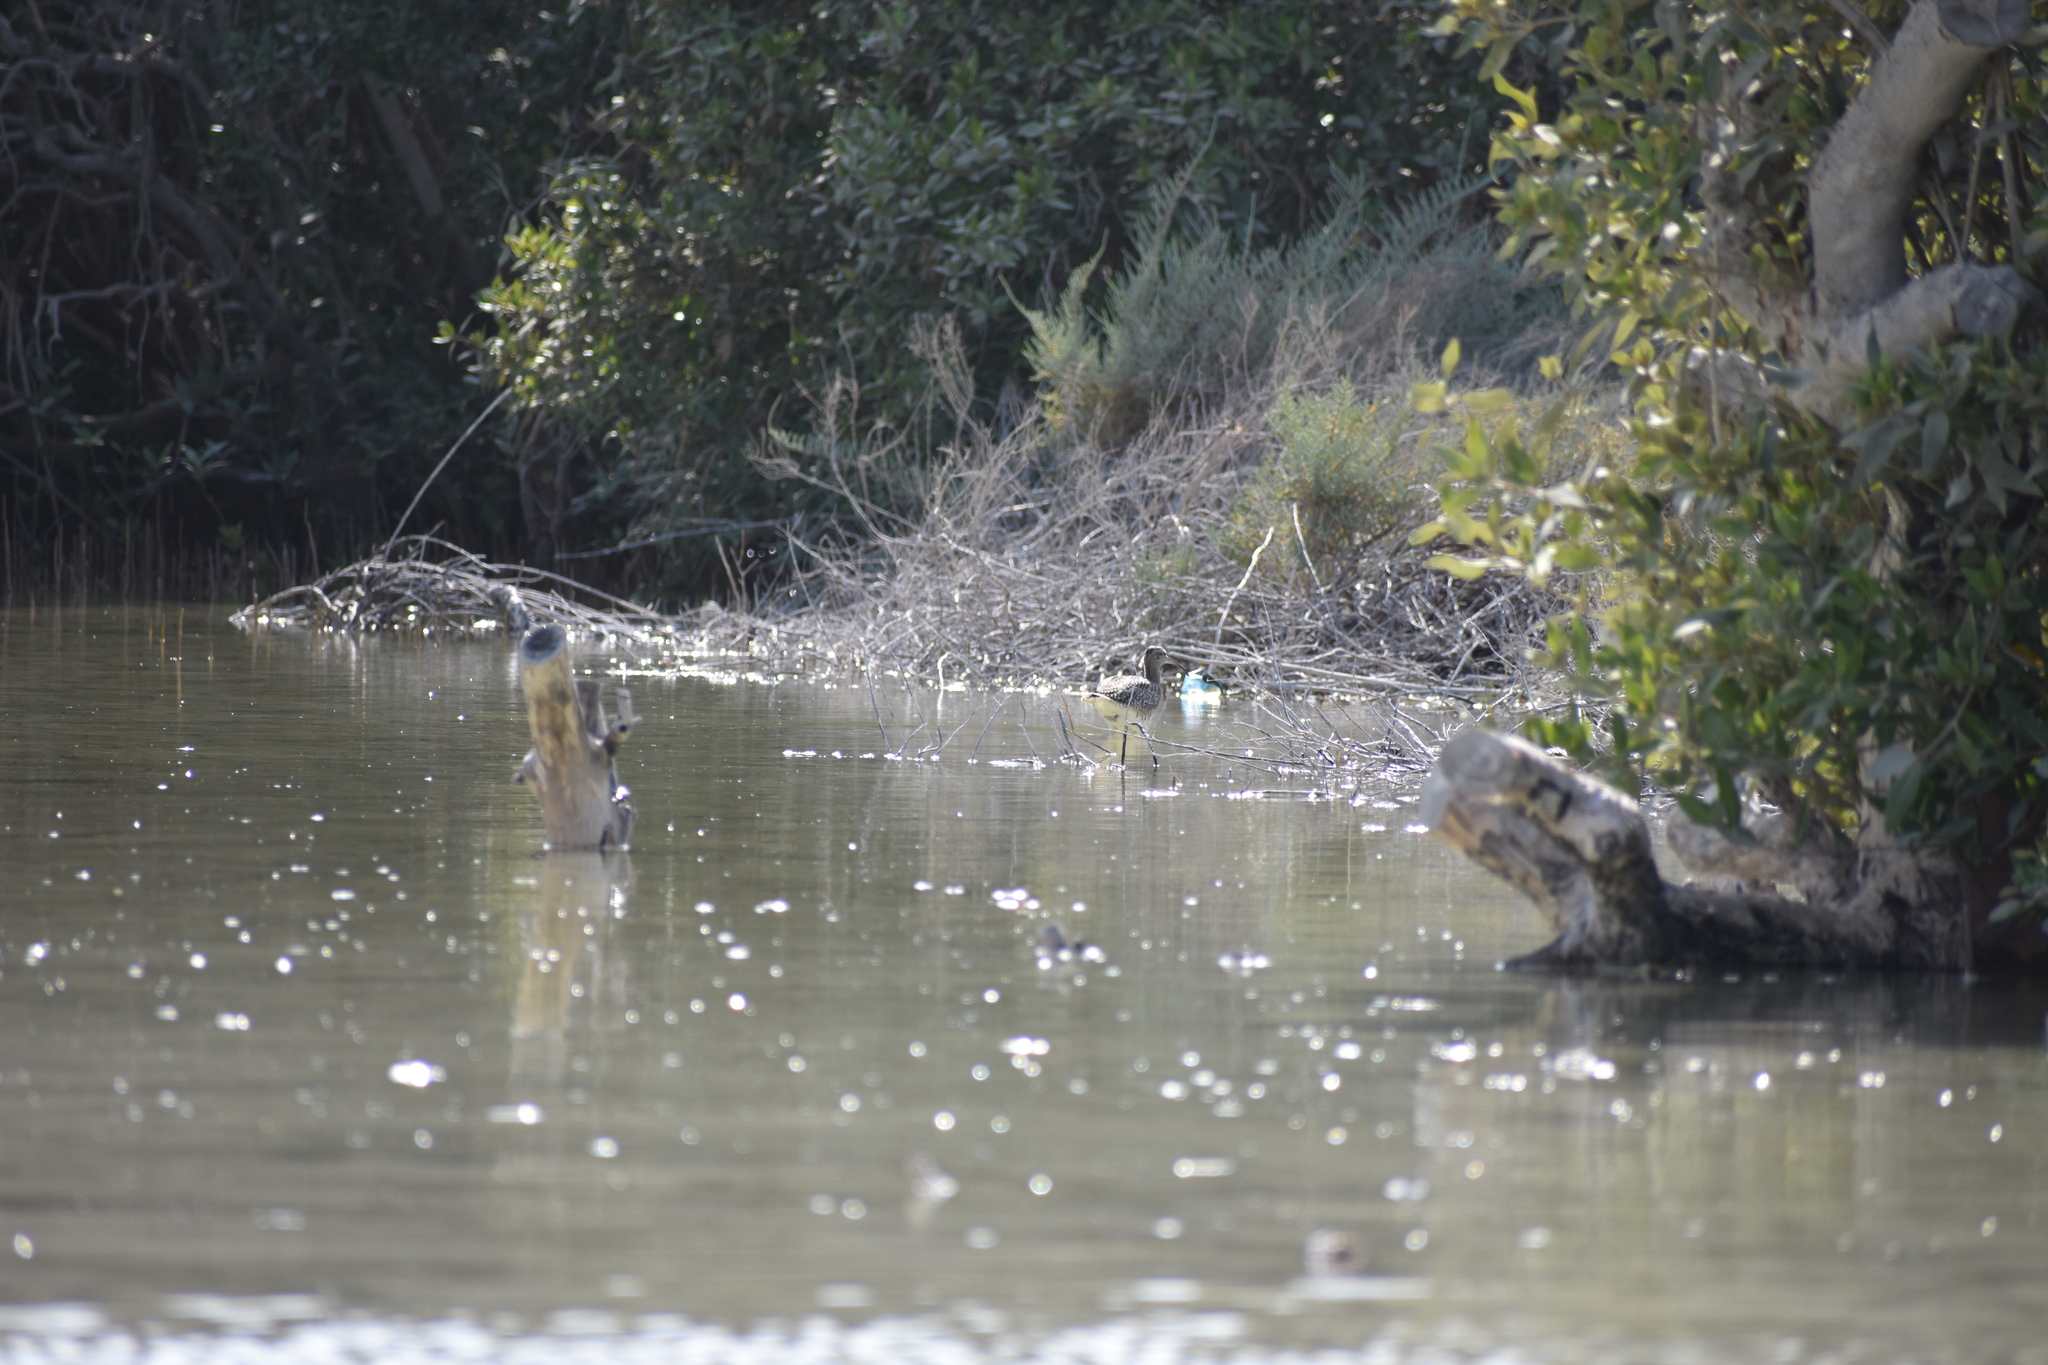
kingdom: Animalia
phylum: Chordata
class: Aves
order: Anseriformes
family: Anatidae
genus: Anas
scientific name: Anas platyrhynchos
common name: Mallard
